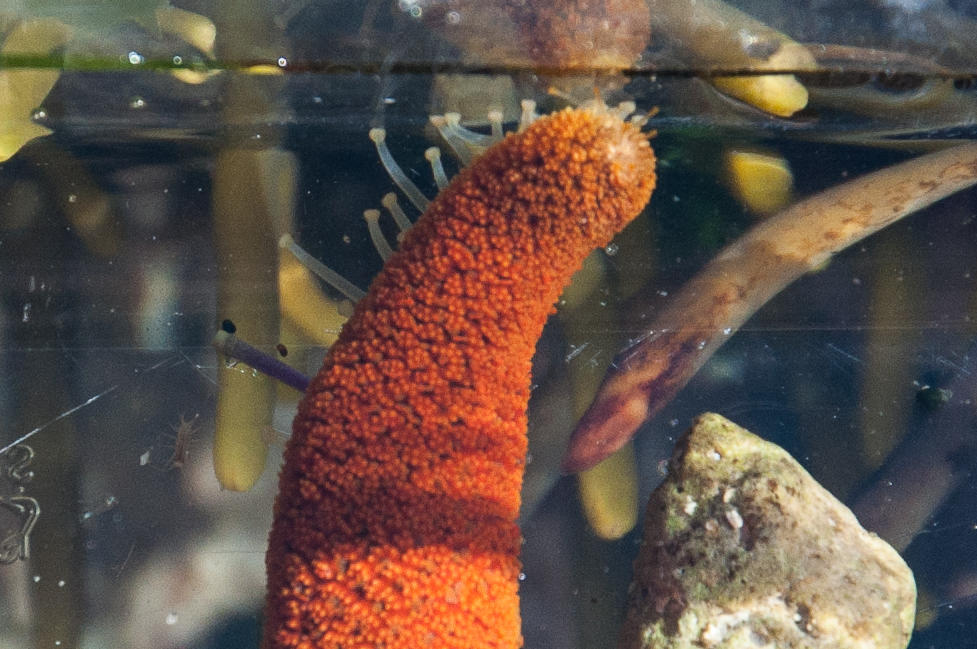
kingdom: Animalia
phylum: Echinodermata
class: Asteroidea
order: Spinulosida
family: Echinasteridae
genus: Henricia
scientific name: Henricia ornata
